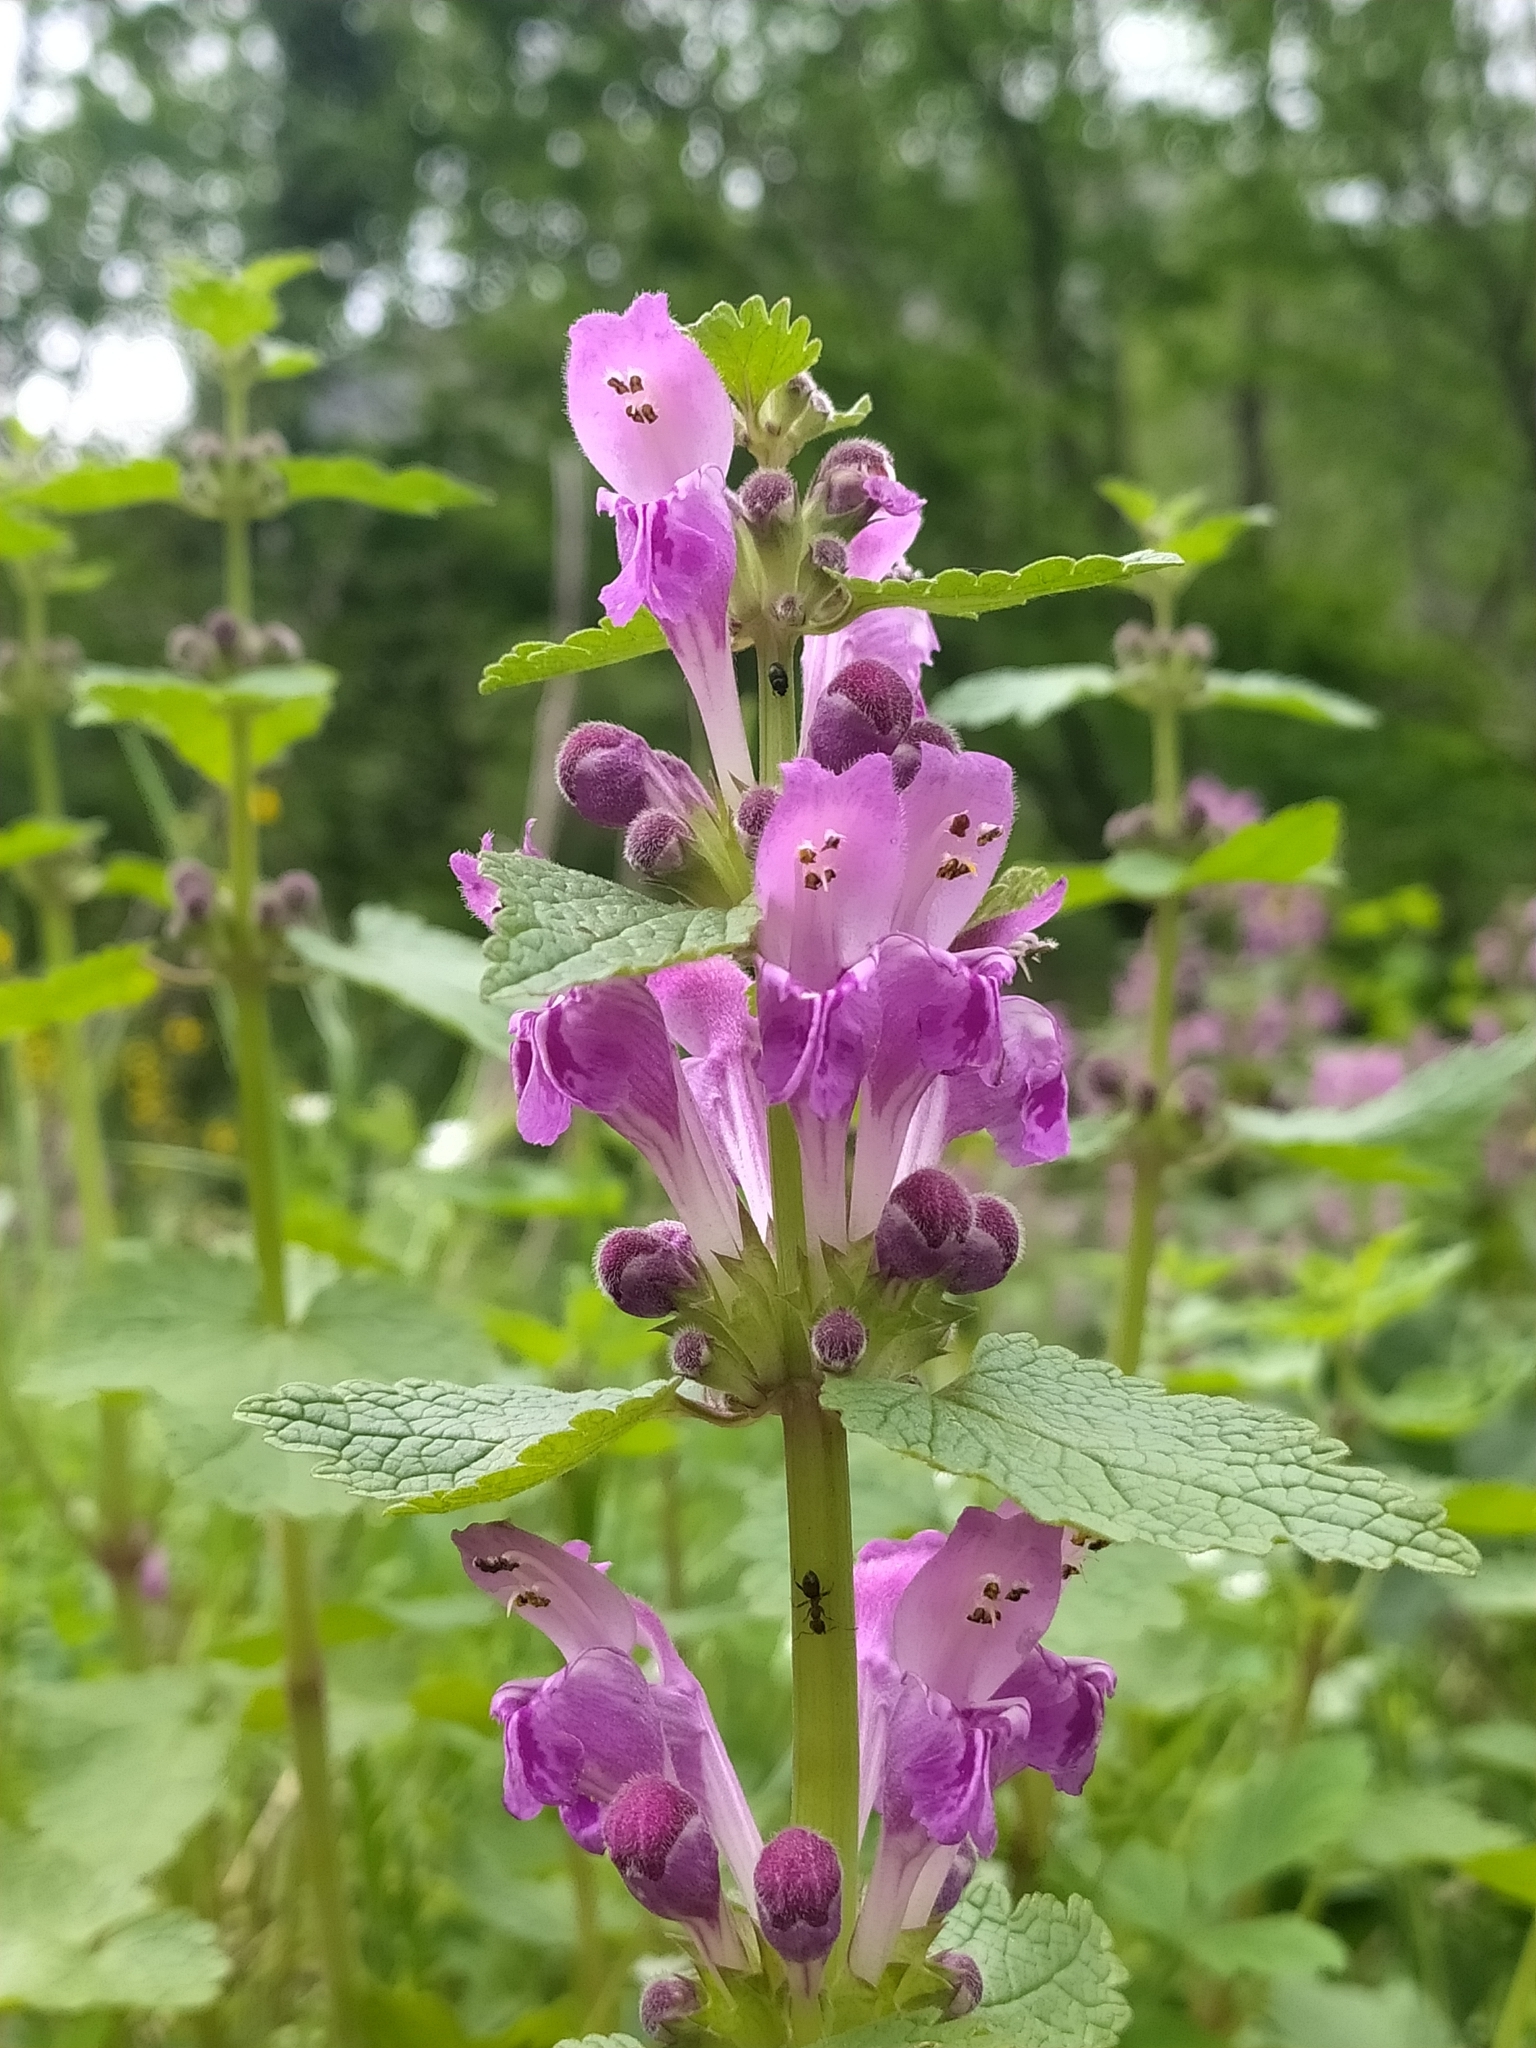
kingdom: Plantae
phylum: Tracheophyta
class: Magnoliopsida
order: Lamiales
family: Lamiaceae
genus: Lamium
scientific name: Lamium garganicum
